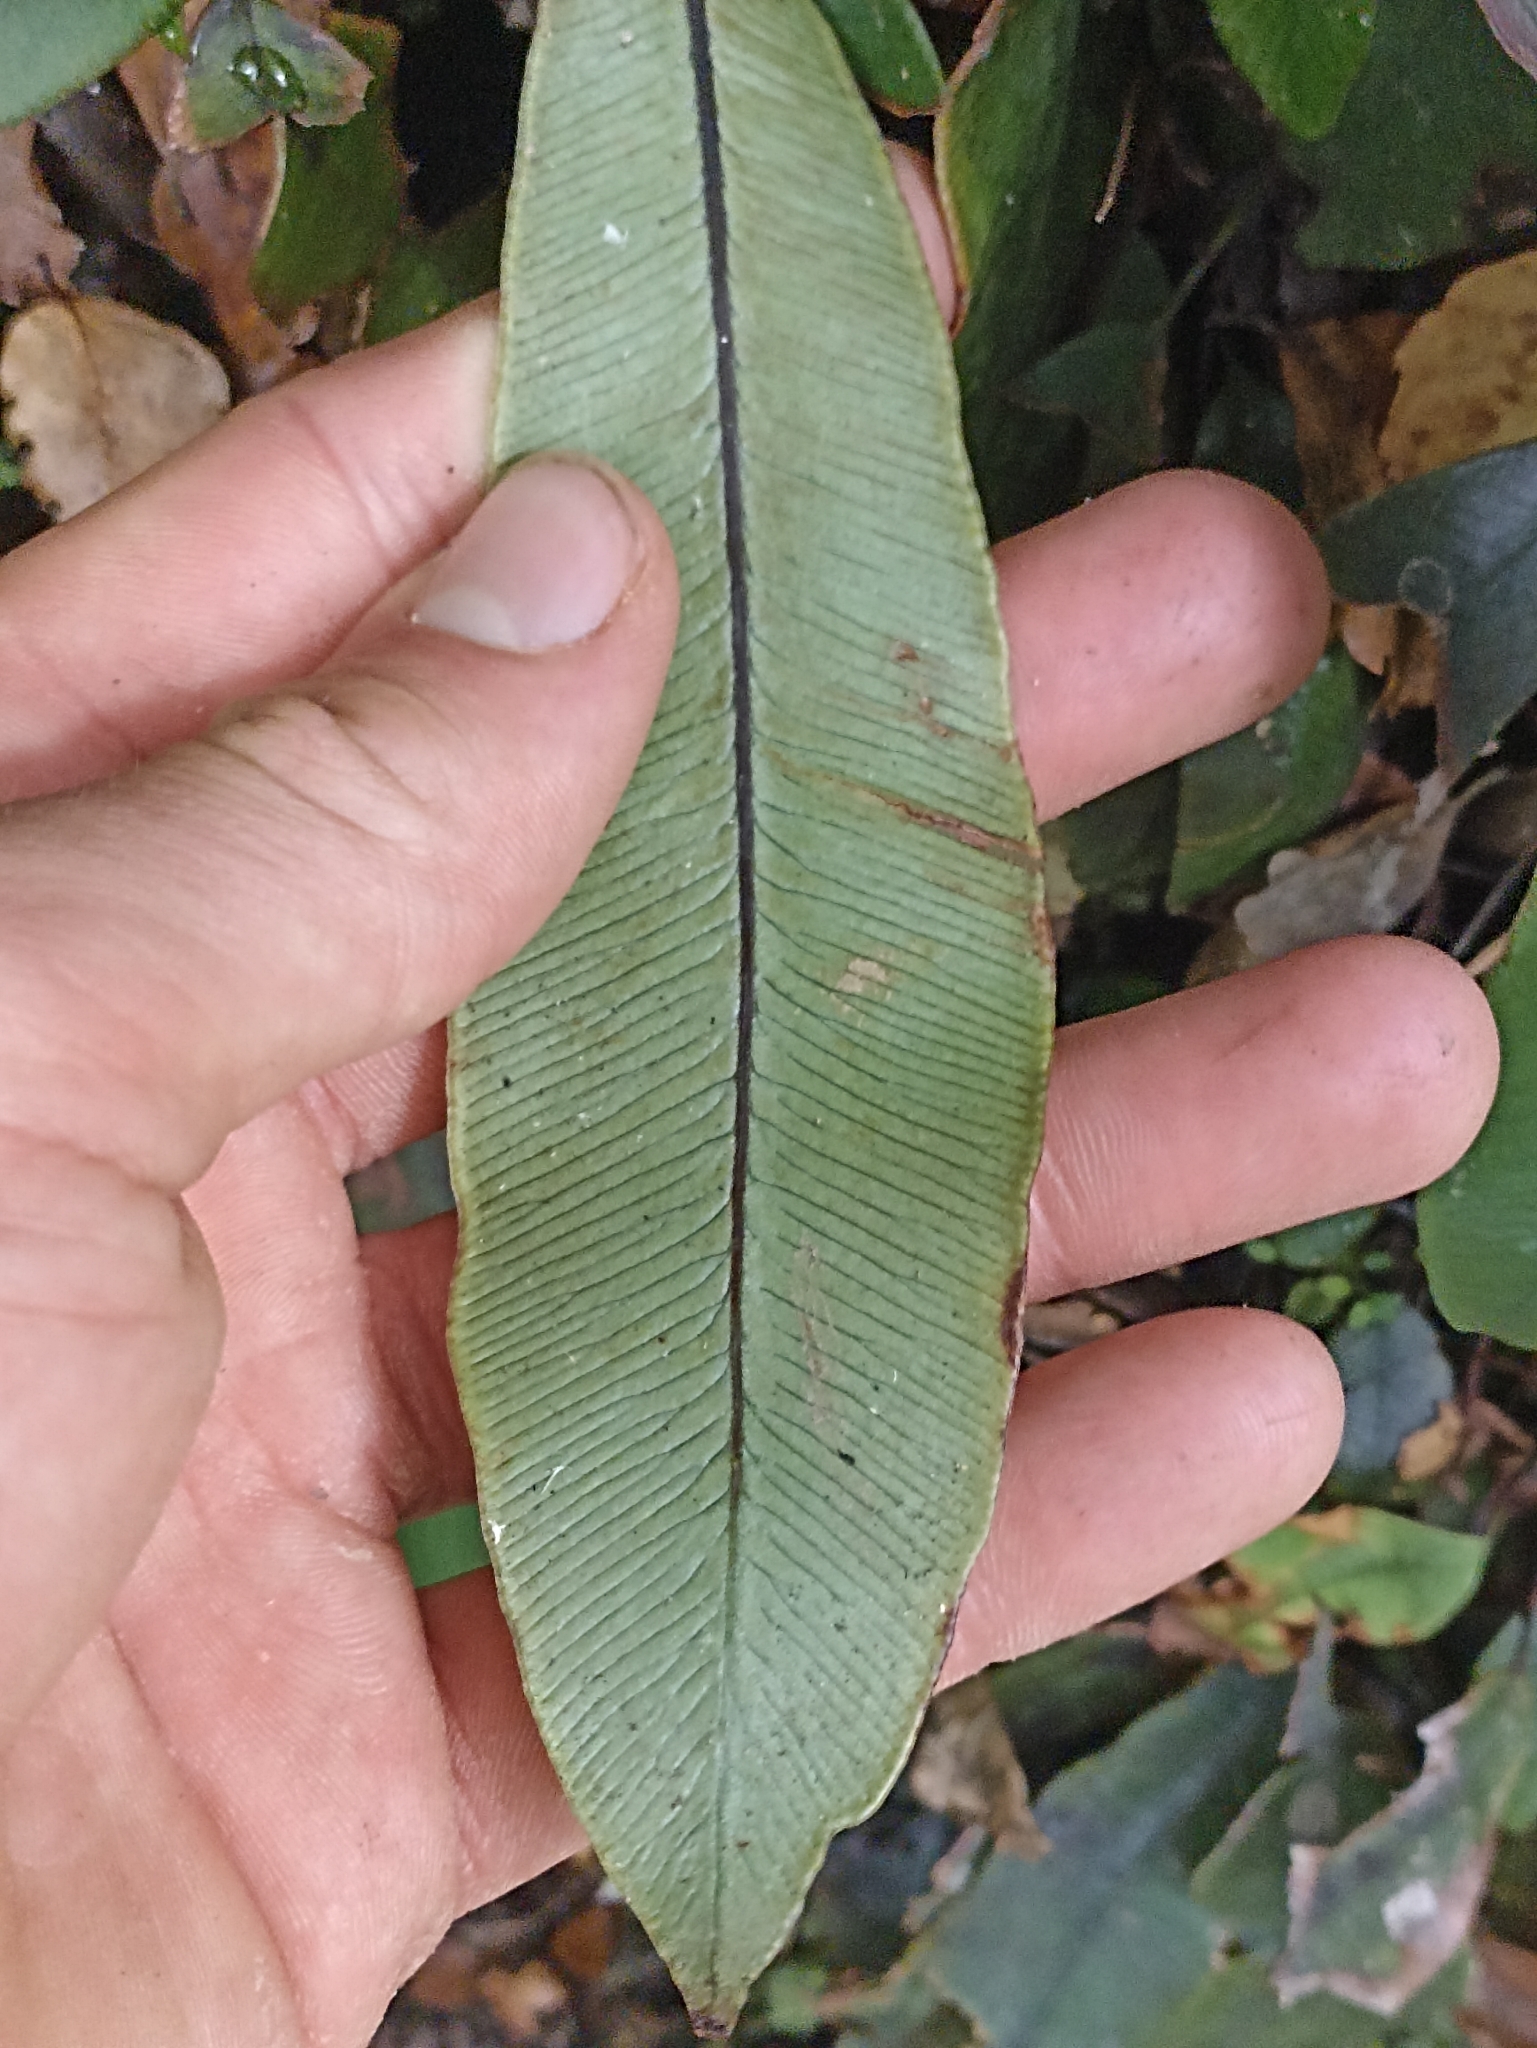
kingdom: Plantae
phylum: Tracheophyta
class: Polypodiopsida
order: Polypodiales
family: Blechnaceae
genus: Austroblechnum
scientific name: Austroblechnum colensoi
